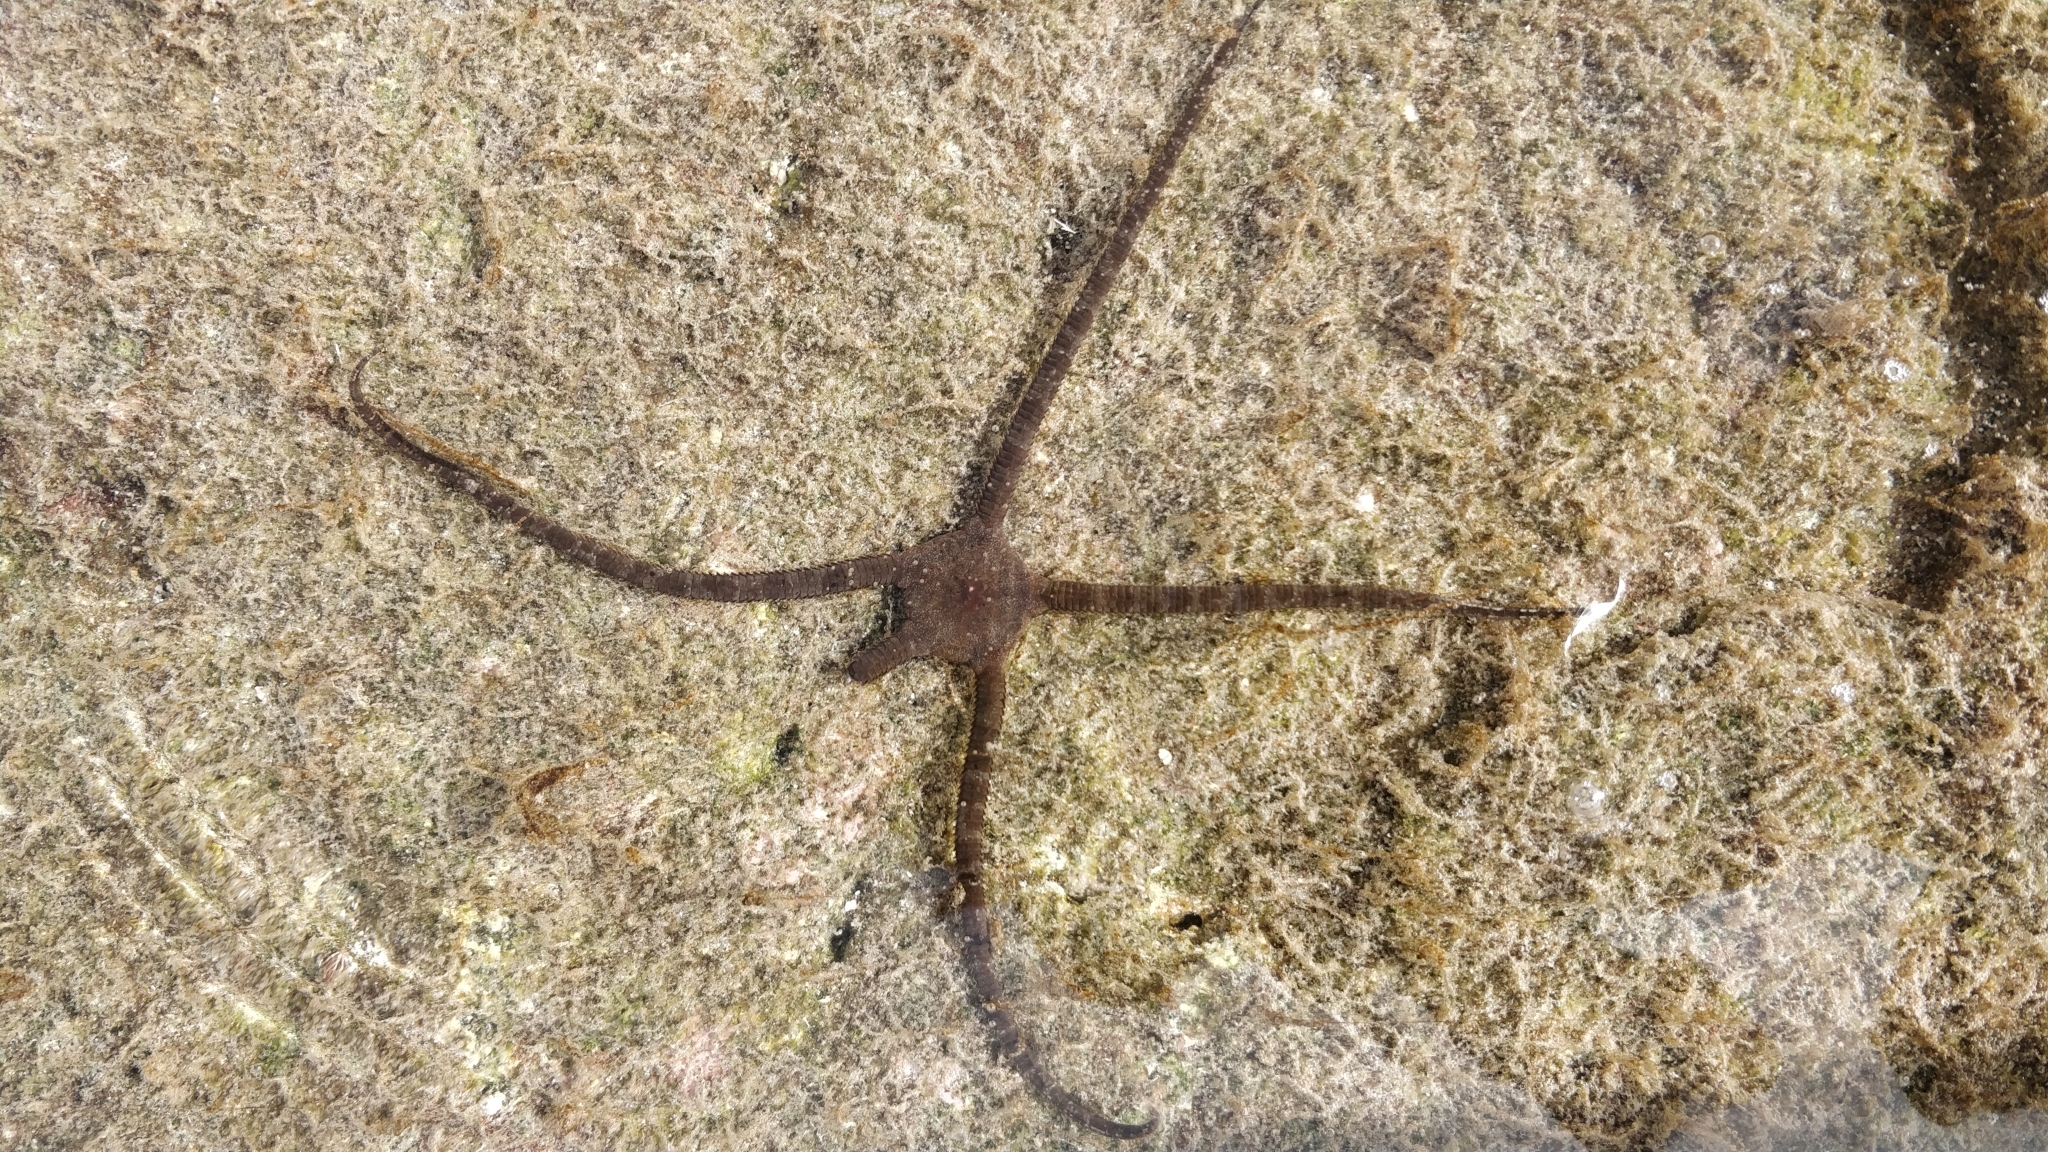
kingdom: Animalia
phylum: Echinodermata
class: Ophiuroidea
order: Ophiacanthida
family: Ophiodermatidae
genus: Ophioderma
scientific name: Ophioderma longicaudum
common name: Smooth brittle-star
